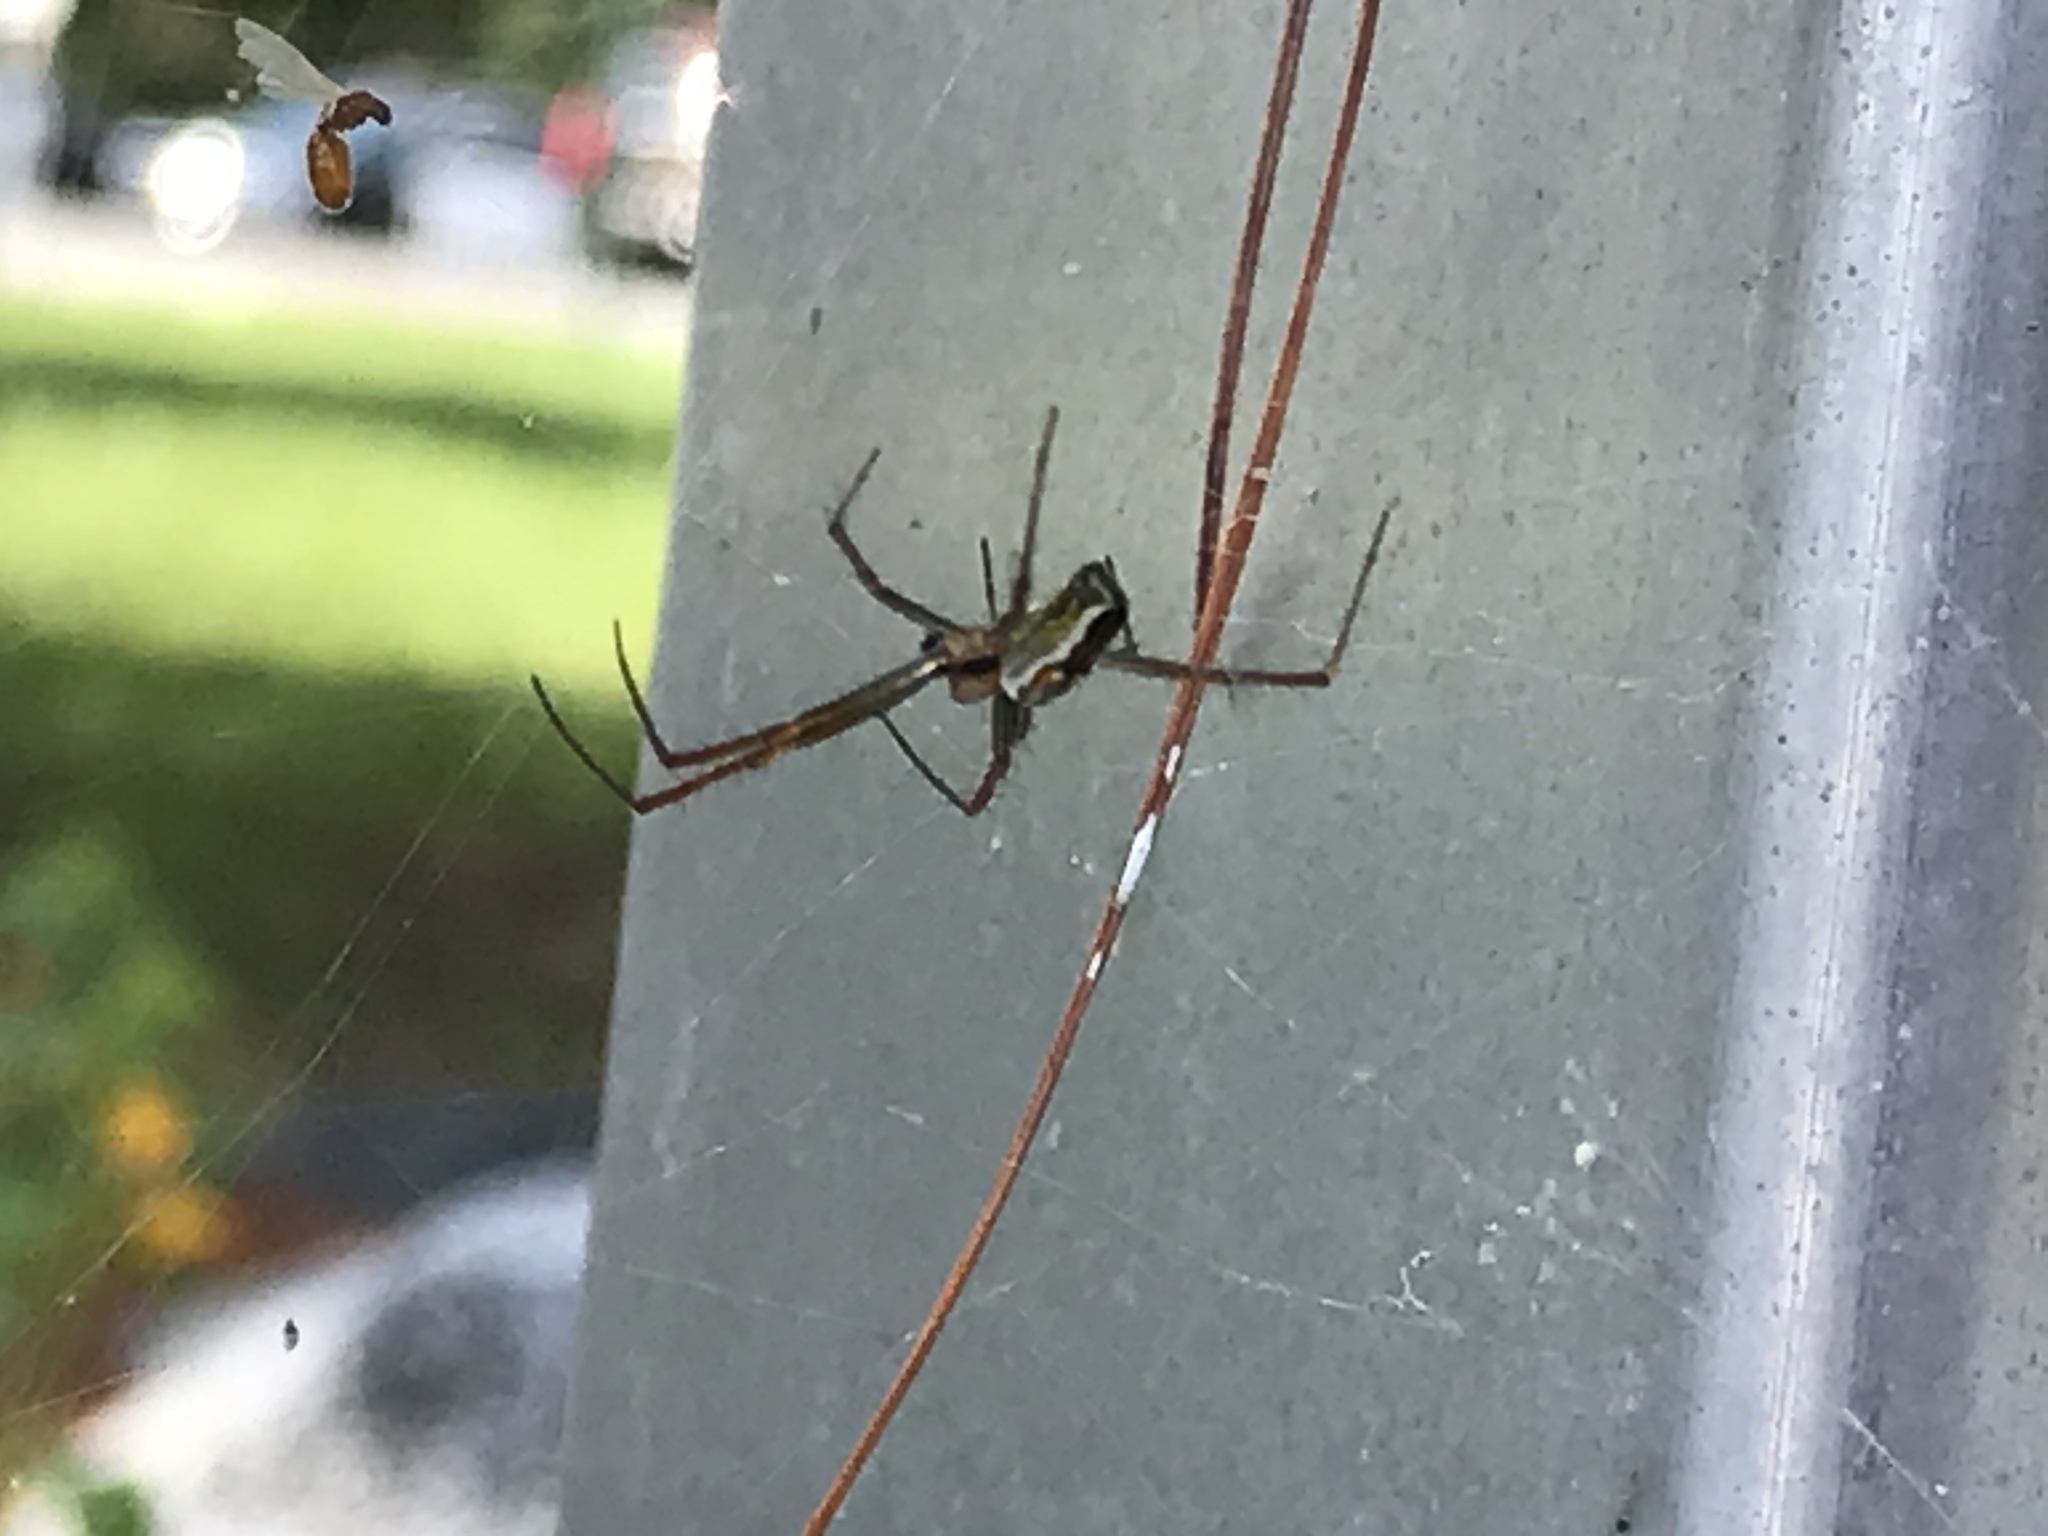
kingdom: Animalia
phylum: Arthropoda
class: Arachnida
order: Araneae
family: Tetragnathidae
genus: Leucauge
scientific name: Leucauge venusta
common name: Longjawed orb weavers
